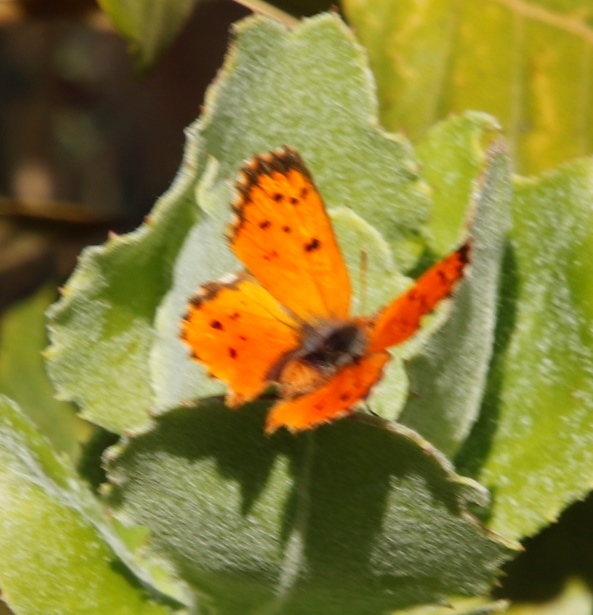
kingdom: Animalia
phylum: Arthropoda
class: Insecta
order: Lepidoptera
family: Lycaenidae
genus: Chrysoritis
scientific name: Chrysoritis
